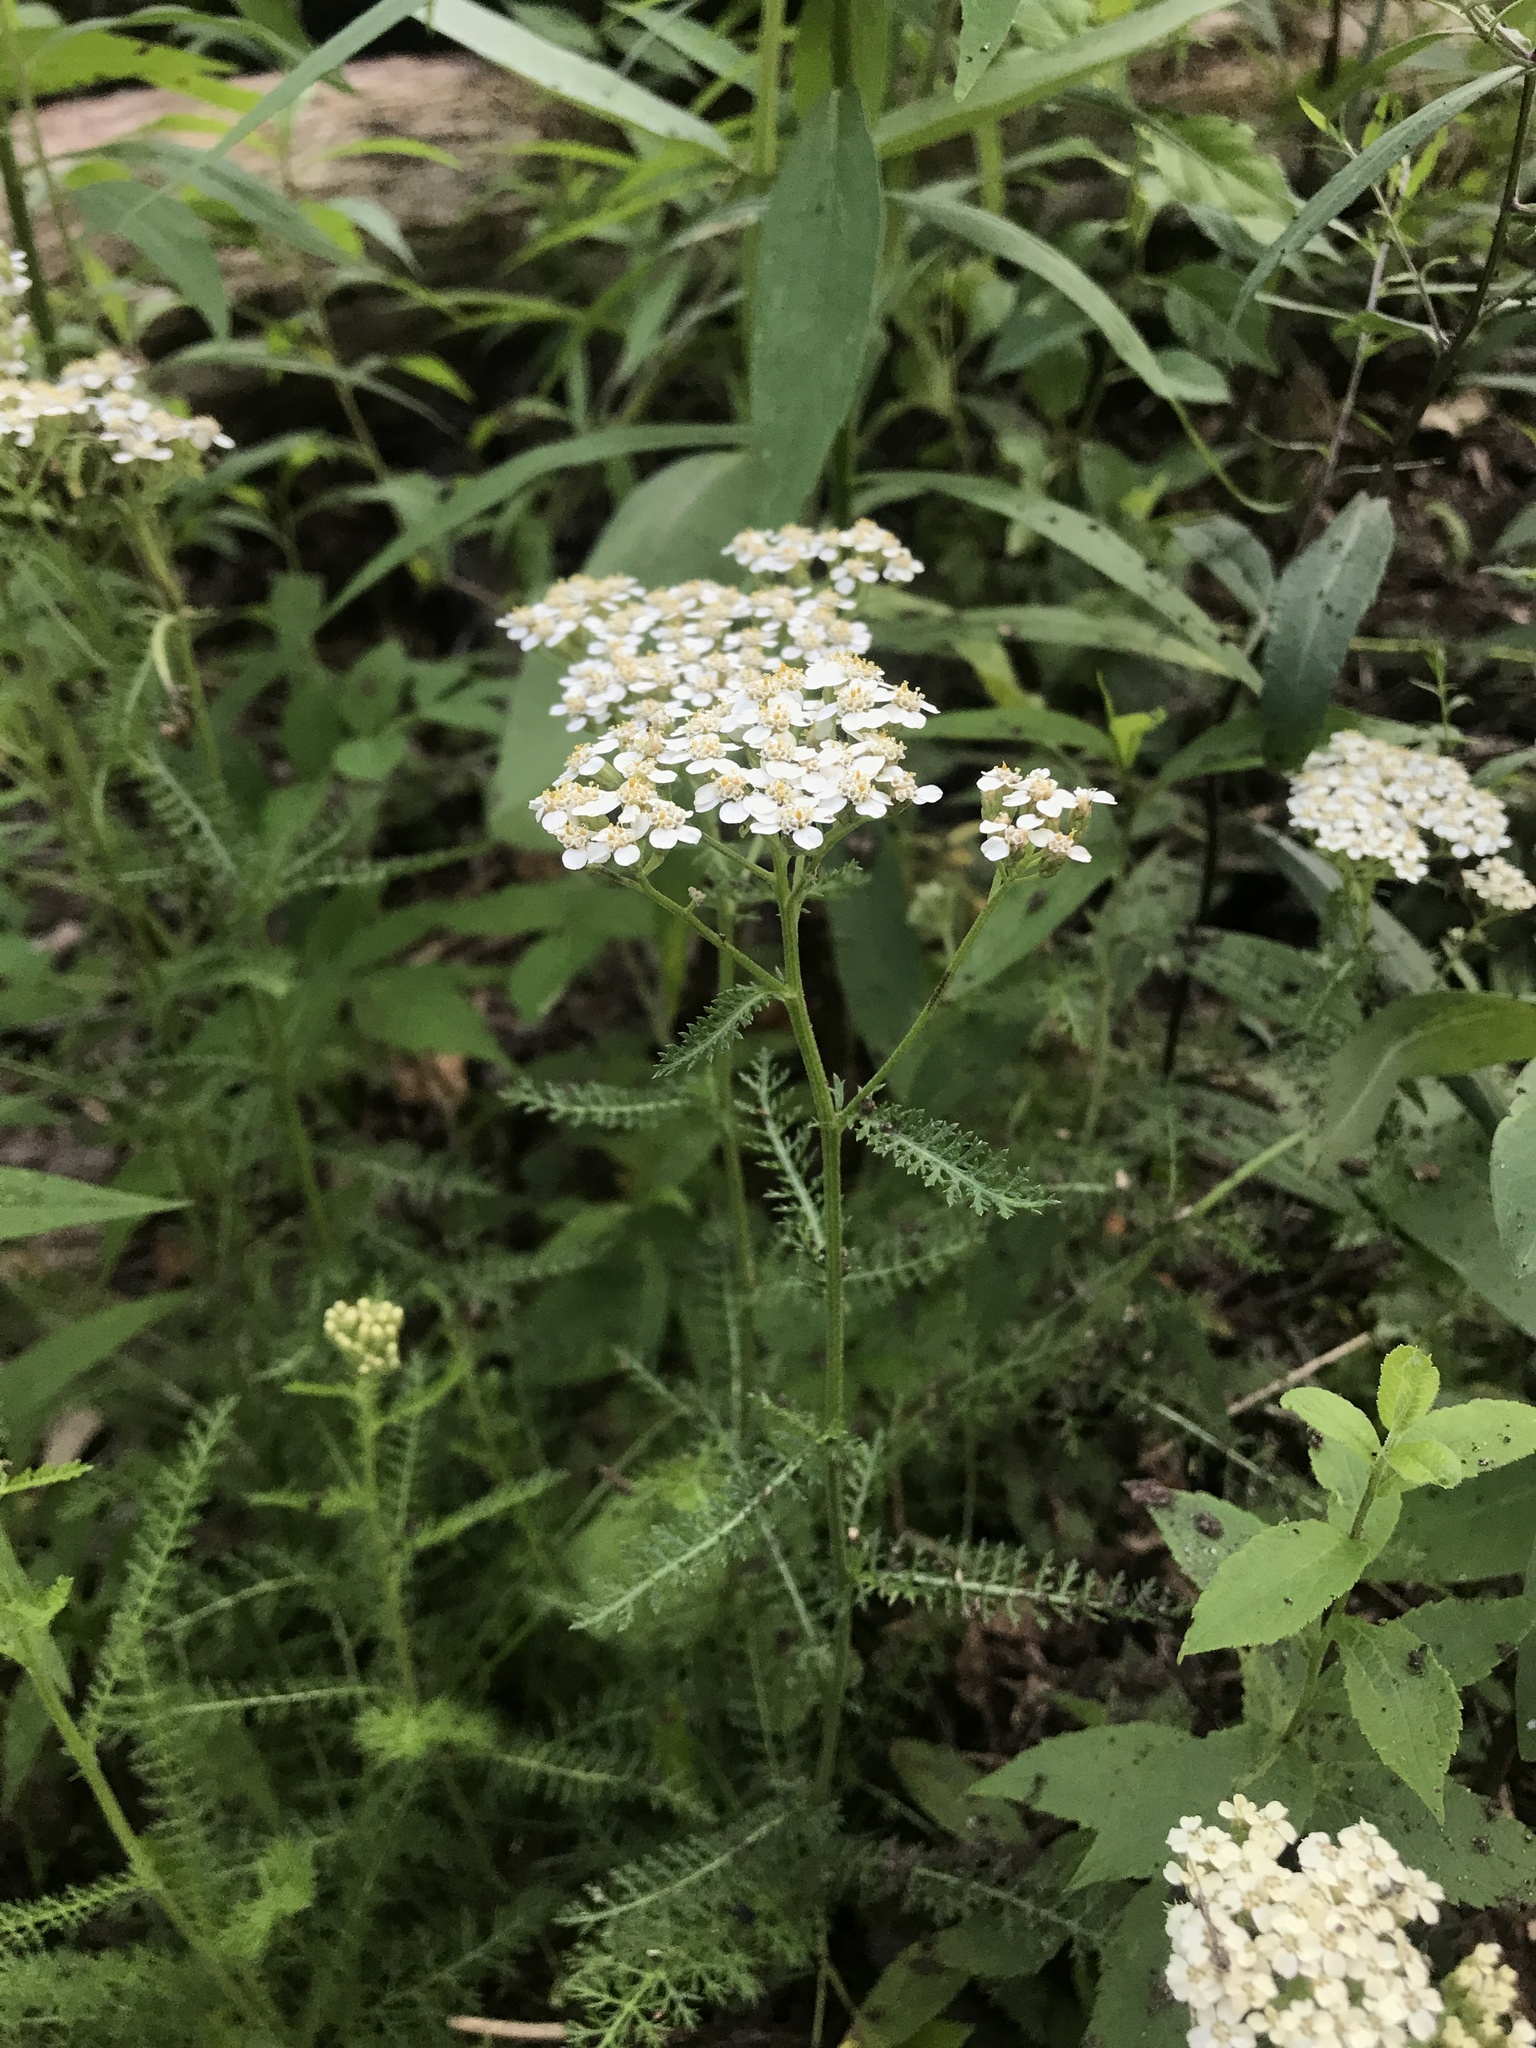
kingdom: Plantae
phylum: Tracheophyta
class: Magnoliopsida
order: Asterales
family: Asteraceae
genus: Achillea
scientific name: Achillea millefolium
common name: Yarrow
